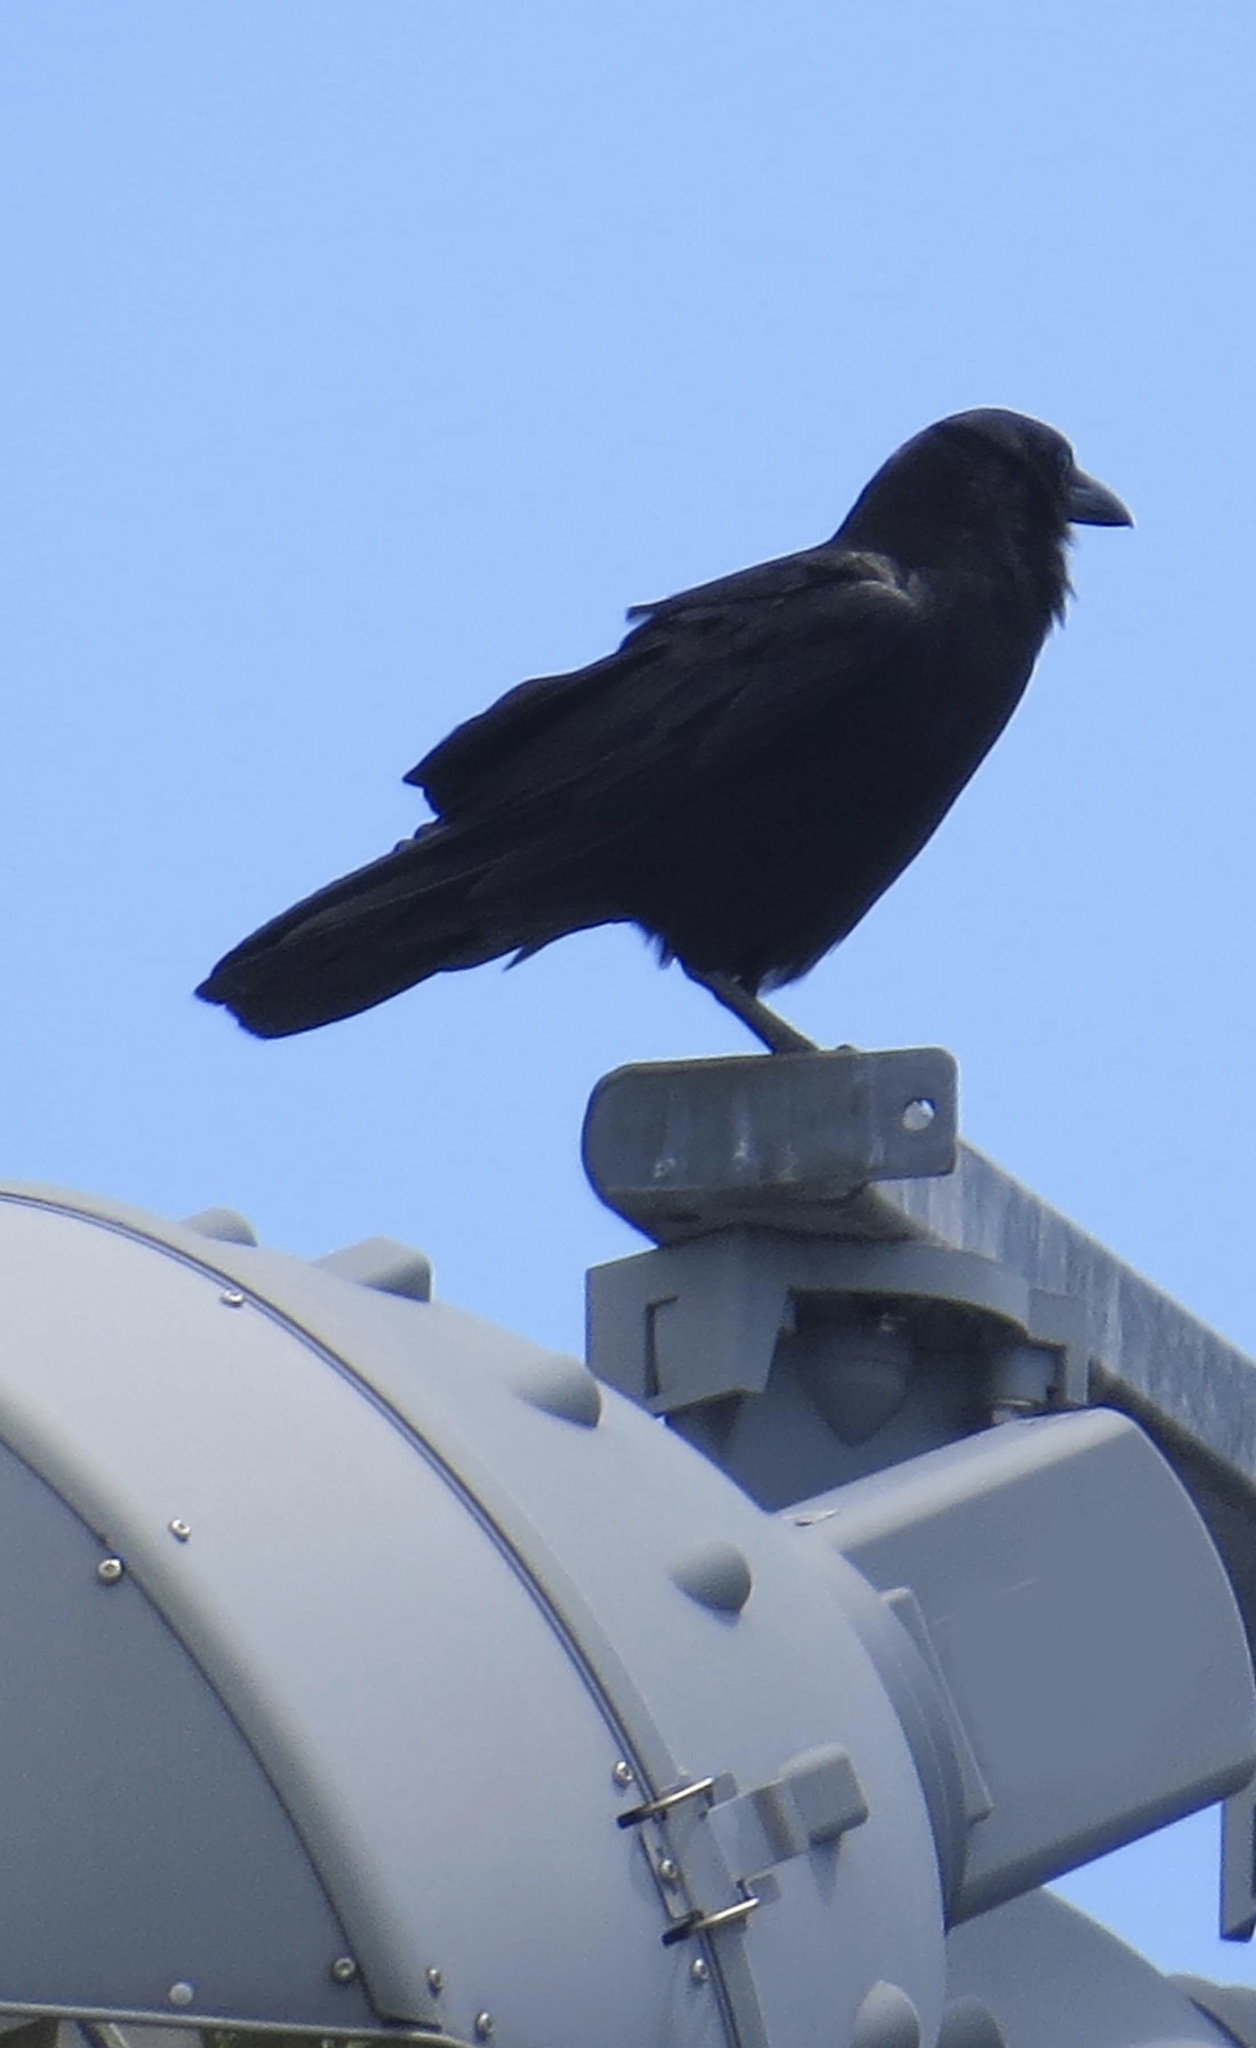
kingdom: Animalia
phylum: Chordata
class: Aves
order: Passeriformes
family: Corvidae
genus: Corvus
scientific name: Corvus brachyrhynchos
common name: American crow
